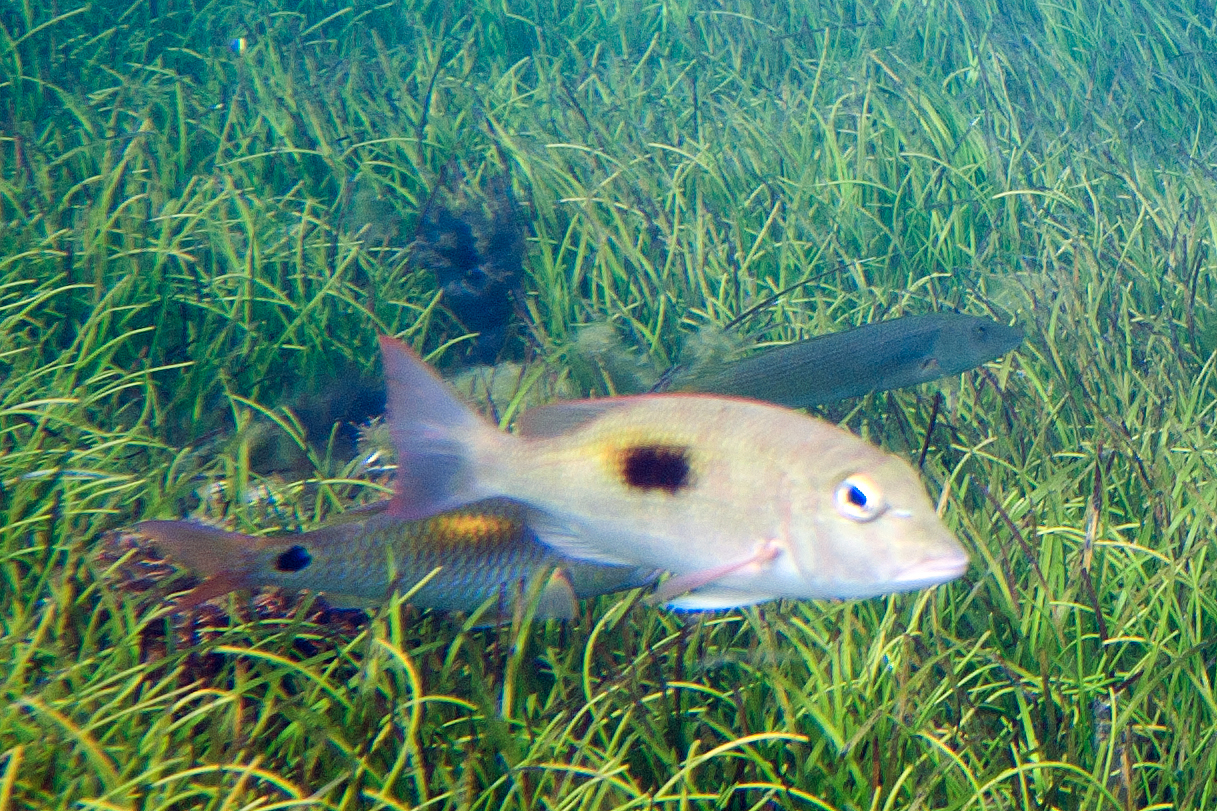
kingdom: Animalia
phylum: Chordata
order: Perciformes
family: Lethrinidae
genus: Lethrinus
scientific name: Lethrinus harak
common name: Blackspot emperor
